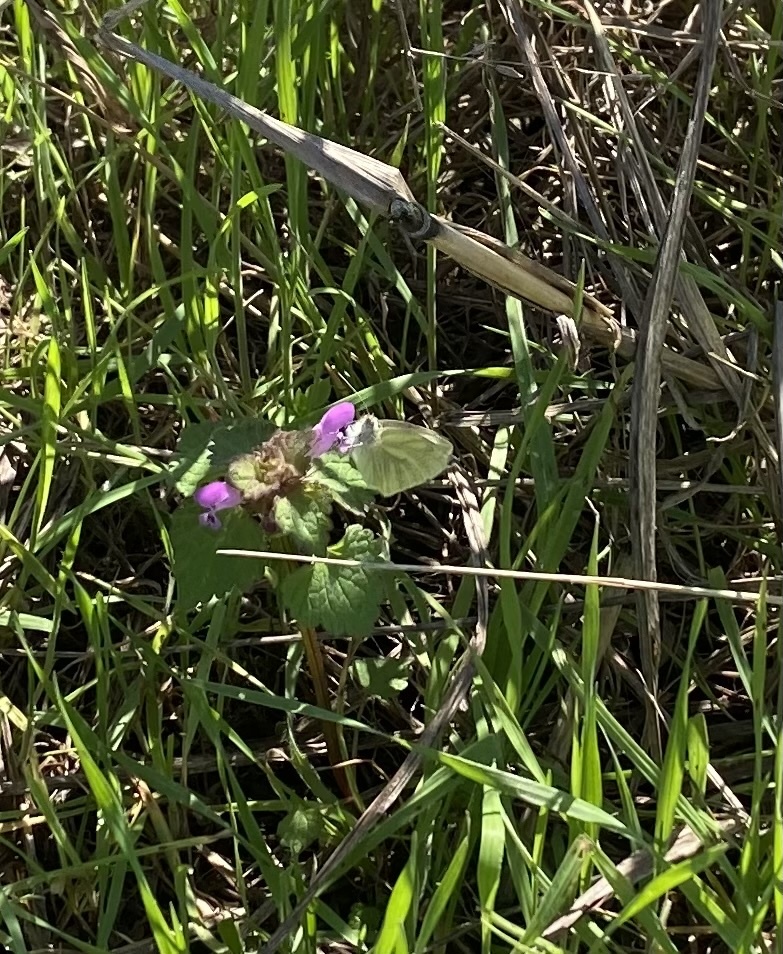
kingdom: Animalia
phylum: Arthropoda
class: Insecta
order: Lepidoptera
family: Pieridae
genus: Pieris
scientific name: Pieris napi
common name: Green-veined white
